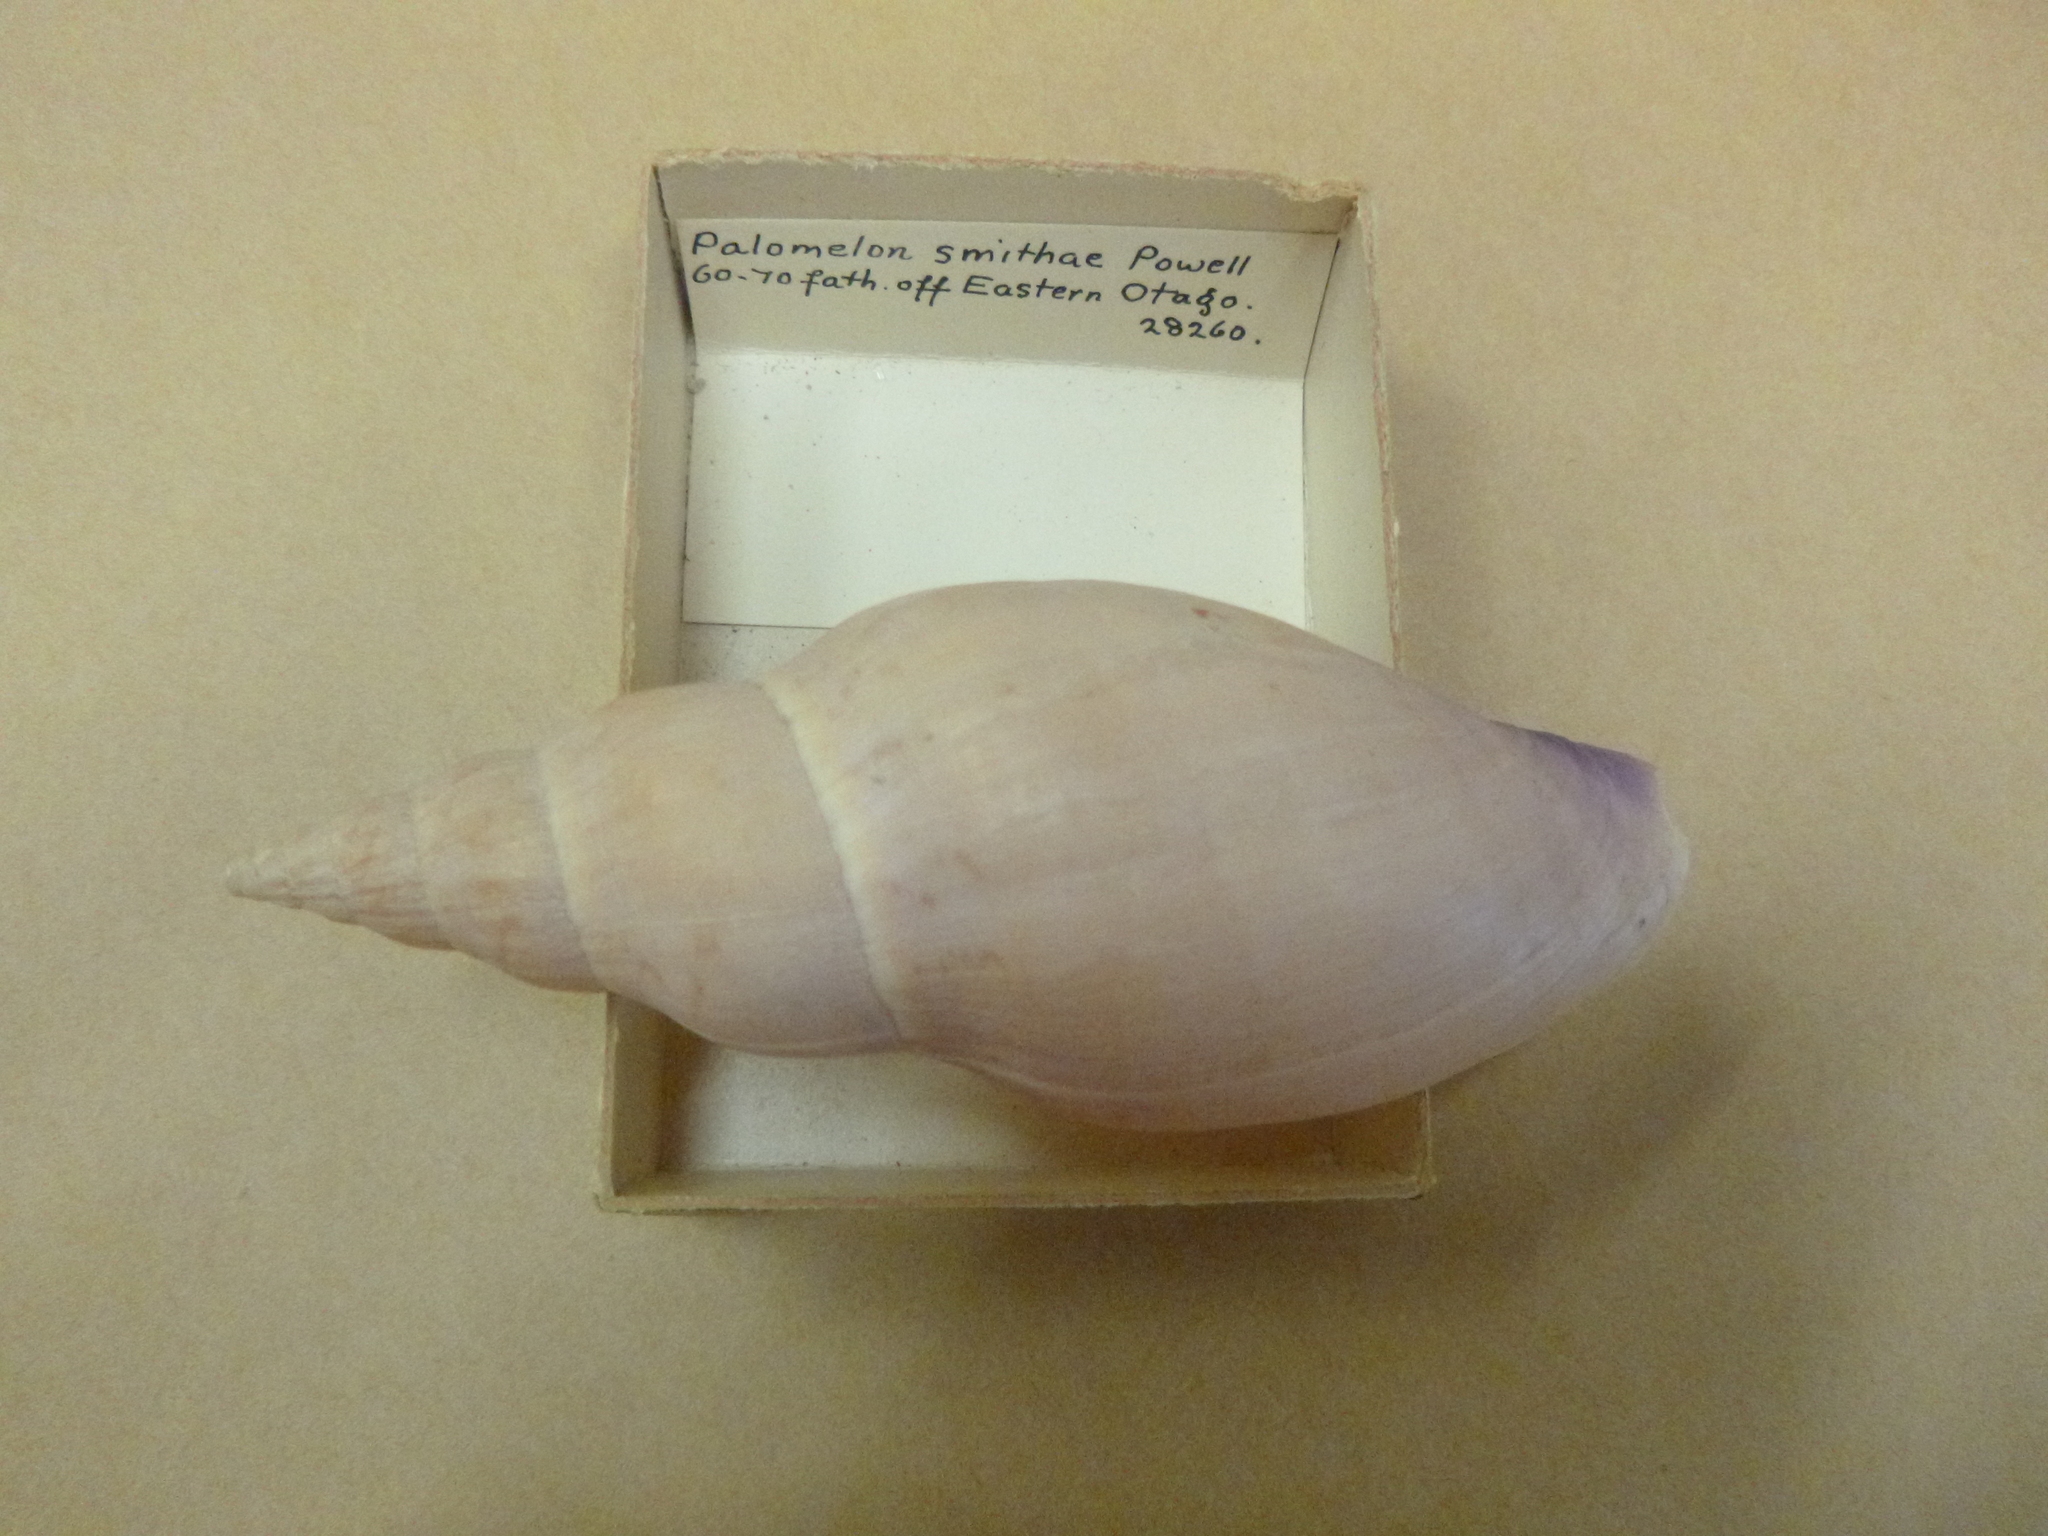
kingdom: Animalia
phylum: Mollusca
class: Gastropoda
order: Neogastropoda
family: Volutidae
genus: Alcithoe
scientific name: Alcithoe wilsonae
